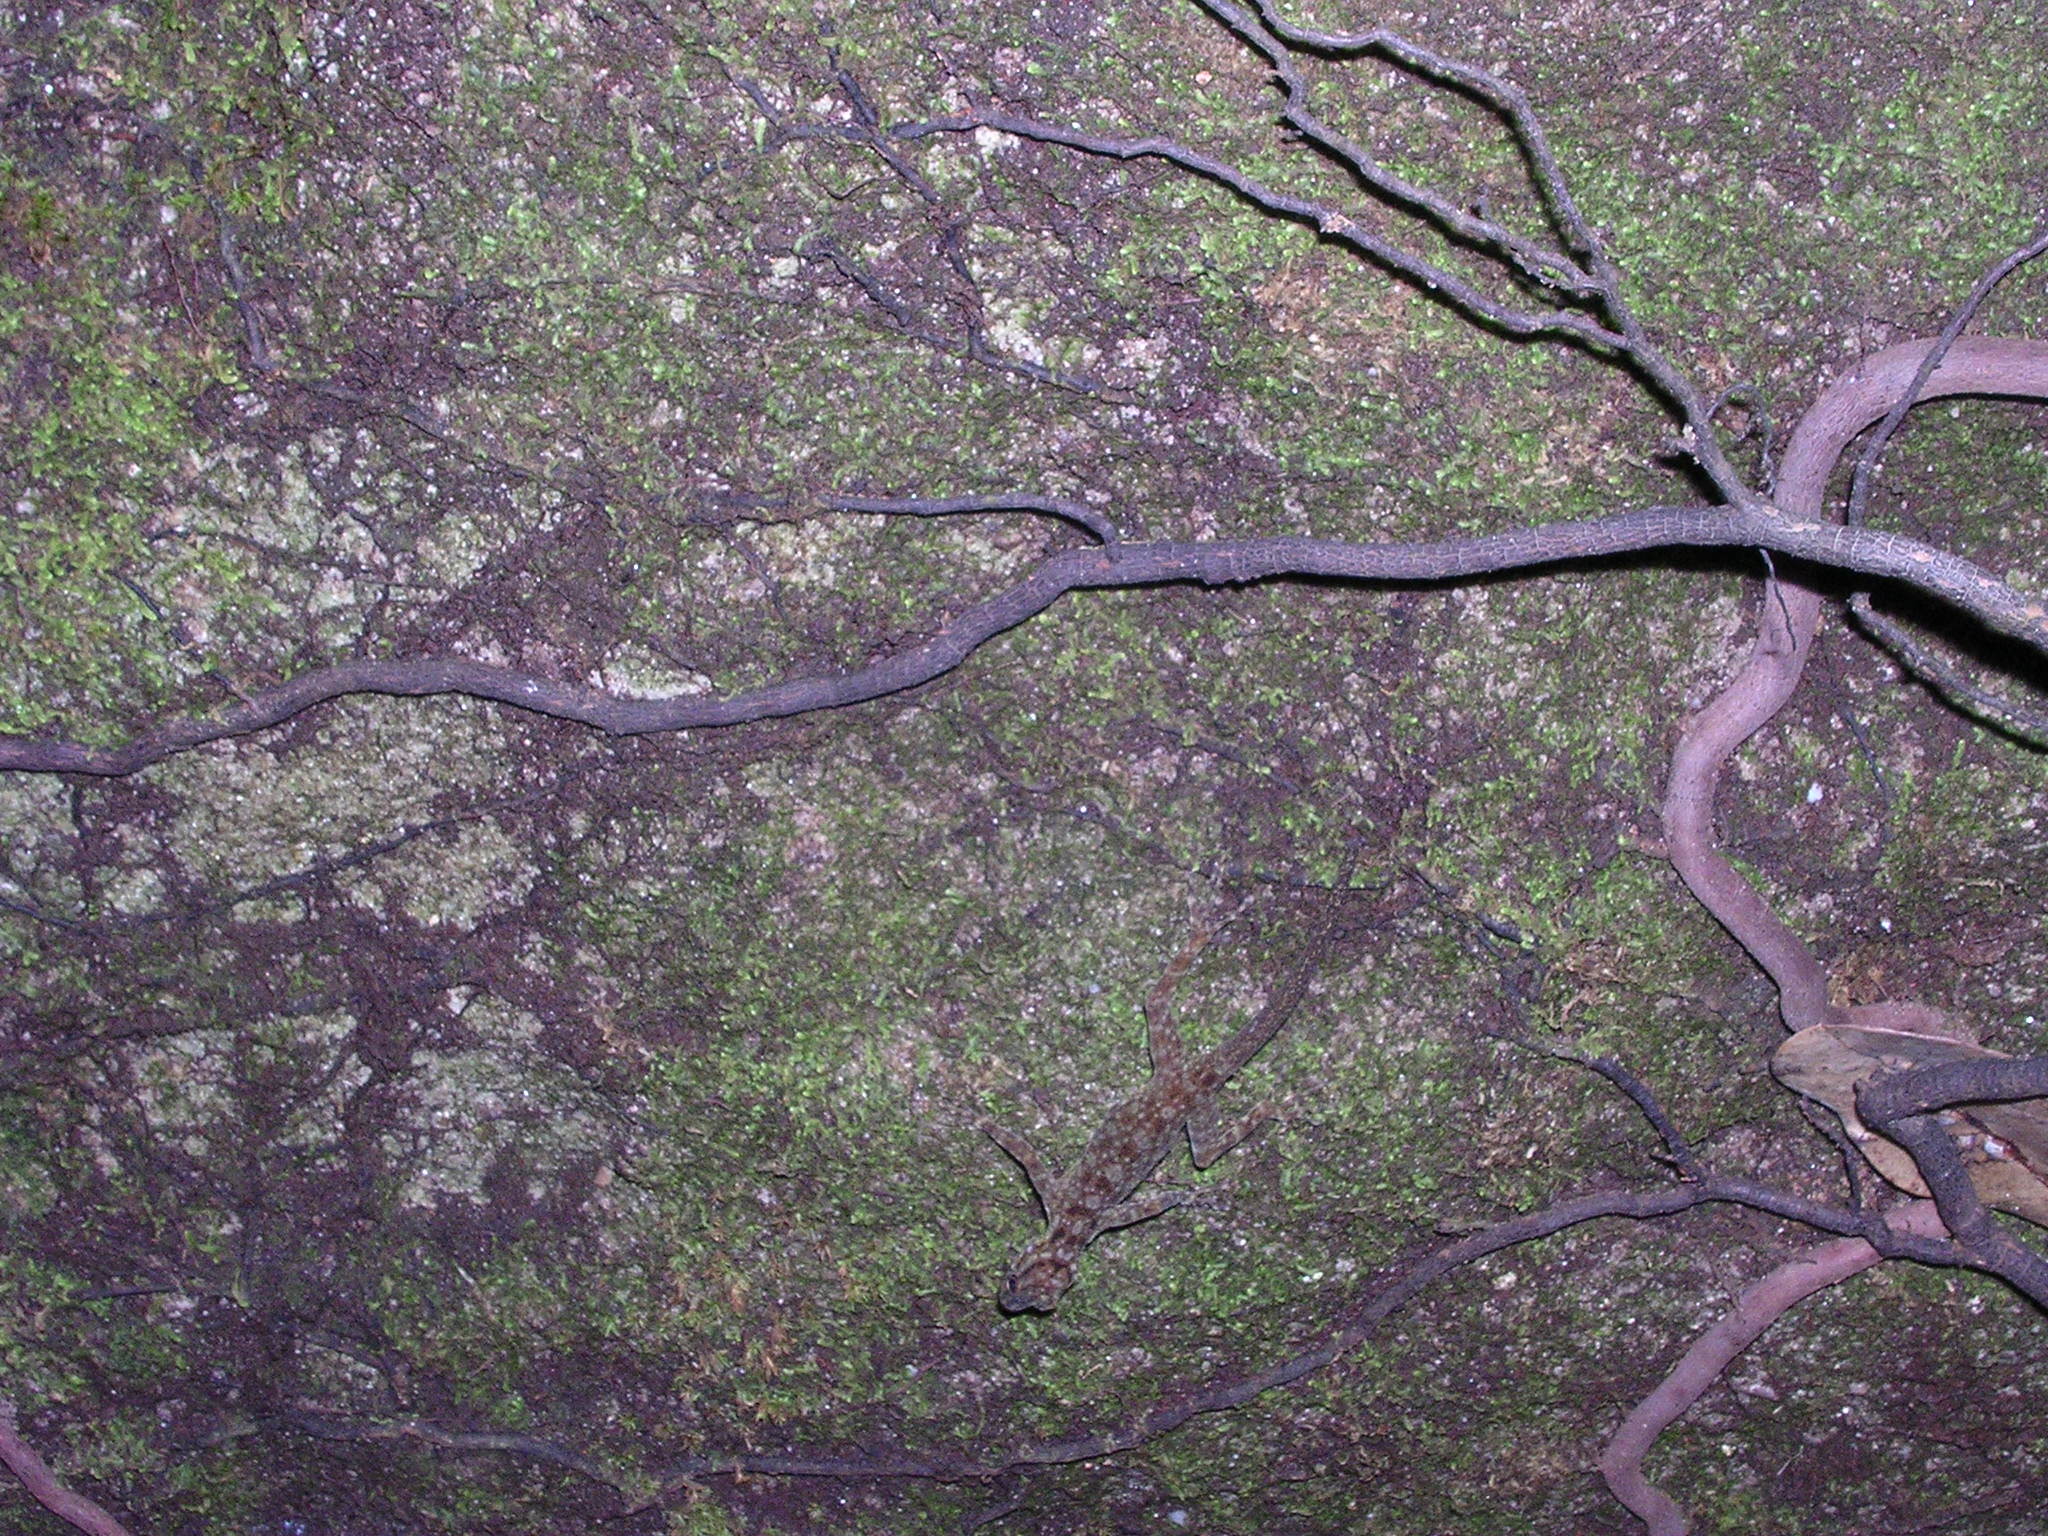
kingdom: Animalia
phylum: Chordata
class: Squamata
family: Gekkonidae
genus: Cnemaspis
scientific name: Cnemaspis kendallii
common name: Kendall's rock gecko
